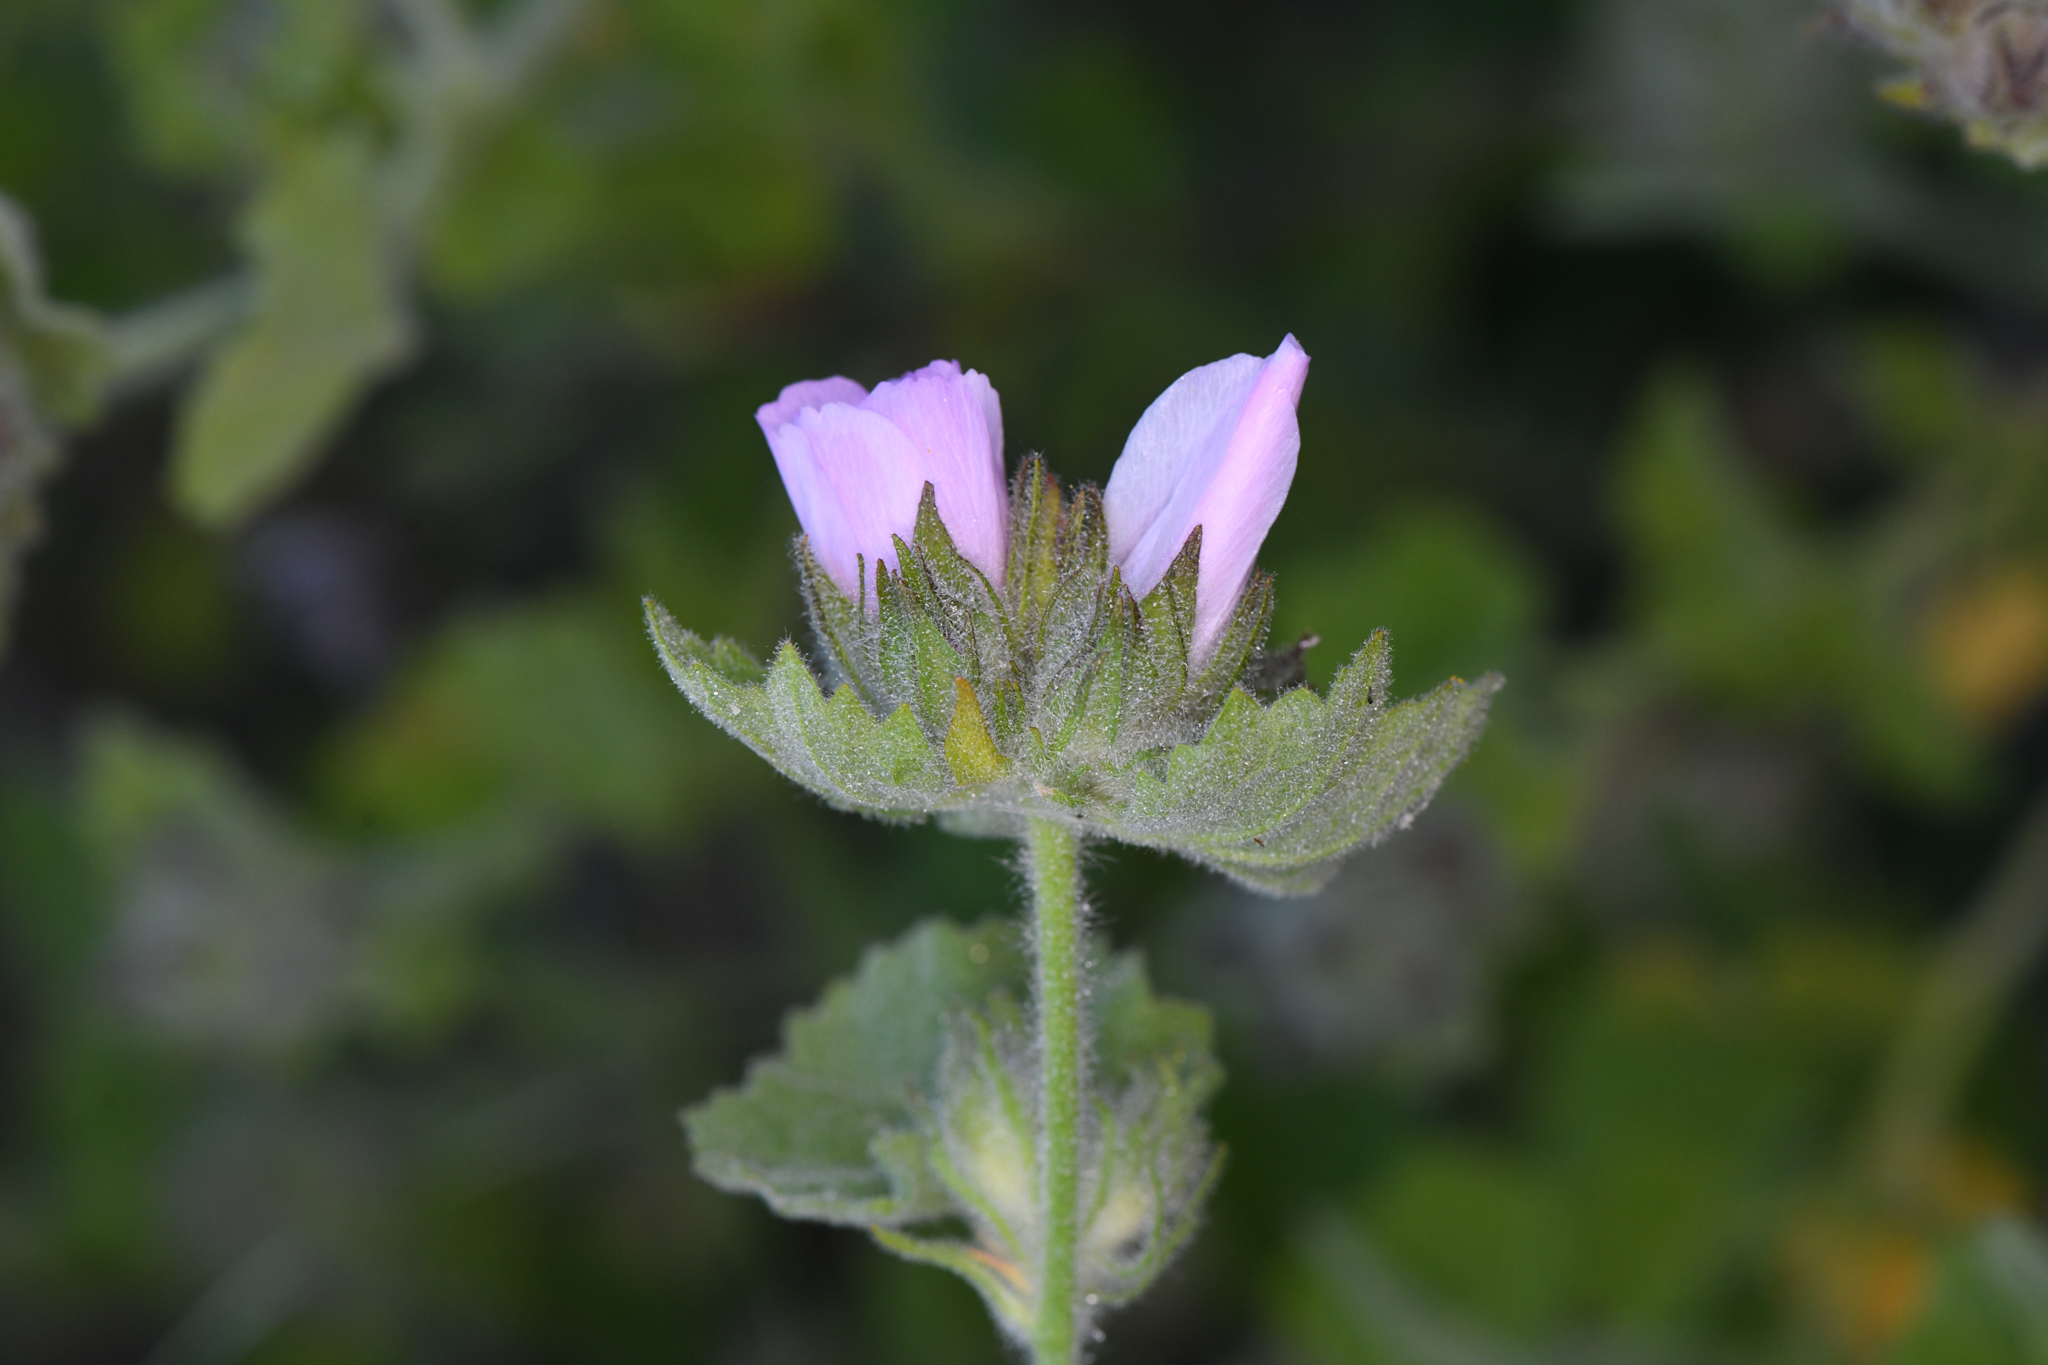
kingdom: Plantae
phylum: Tracheophyta
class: Magnoliopsida
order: Malvales
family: Malvaceae
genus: Malacothamnus
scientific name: Malacothamnus lucianus
